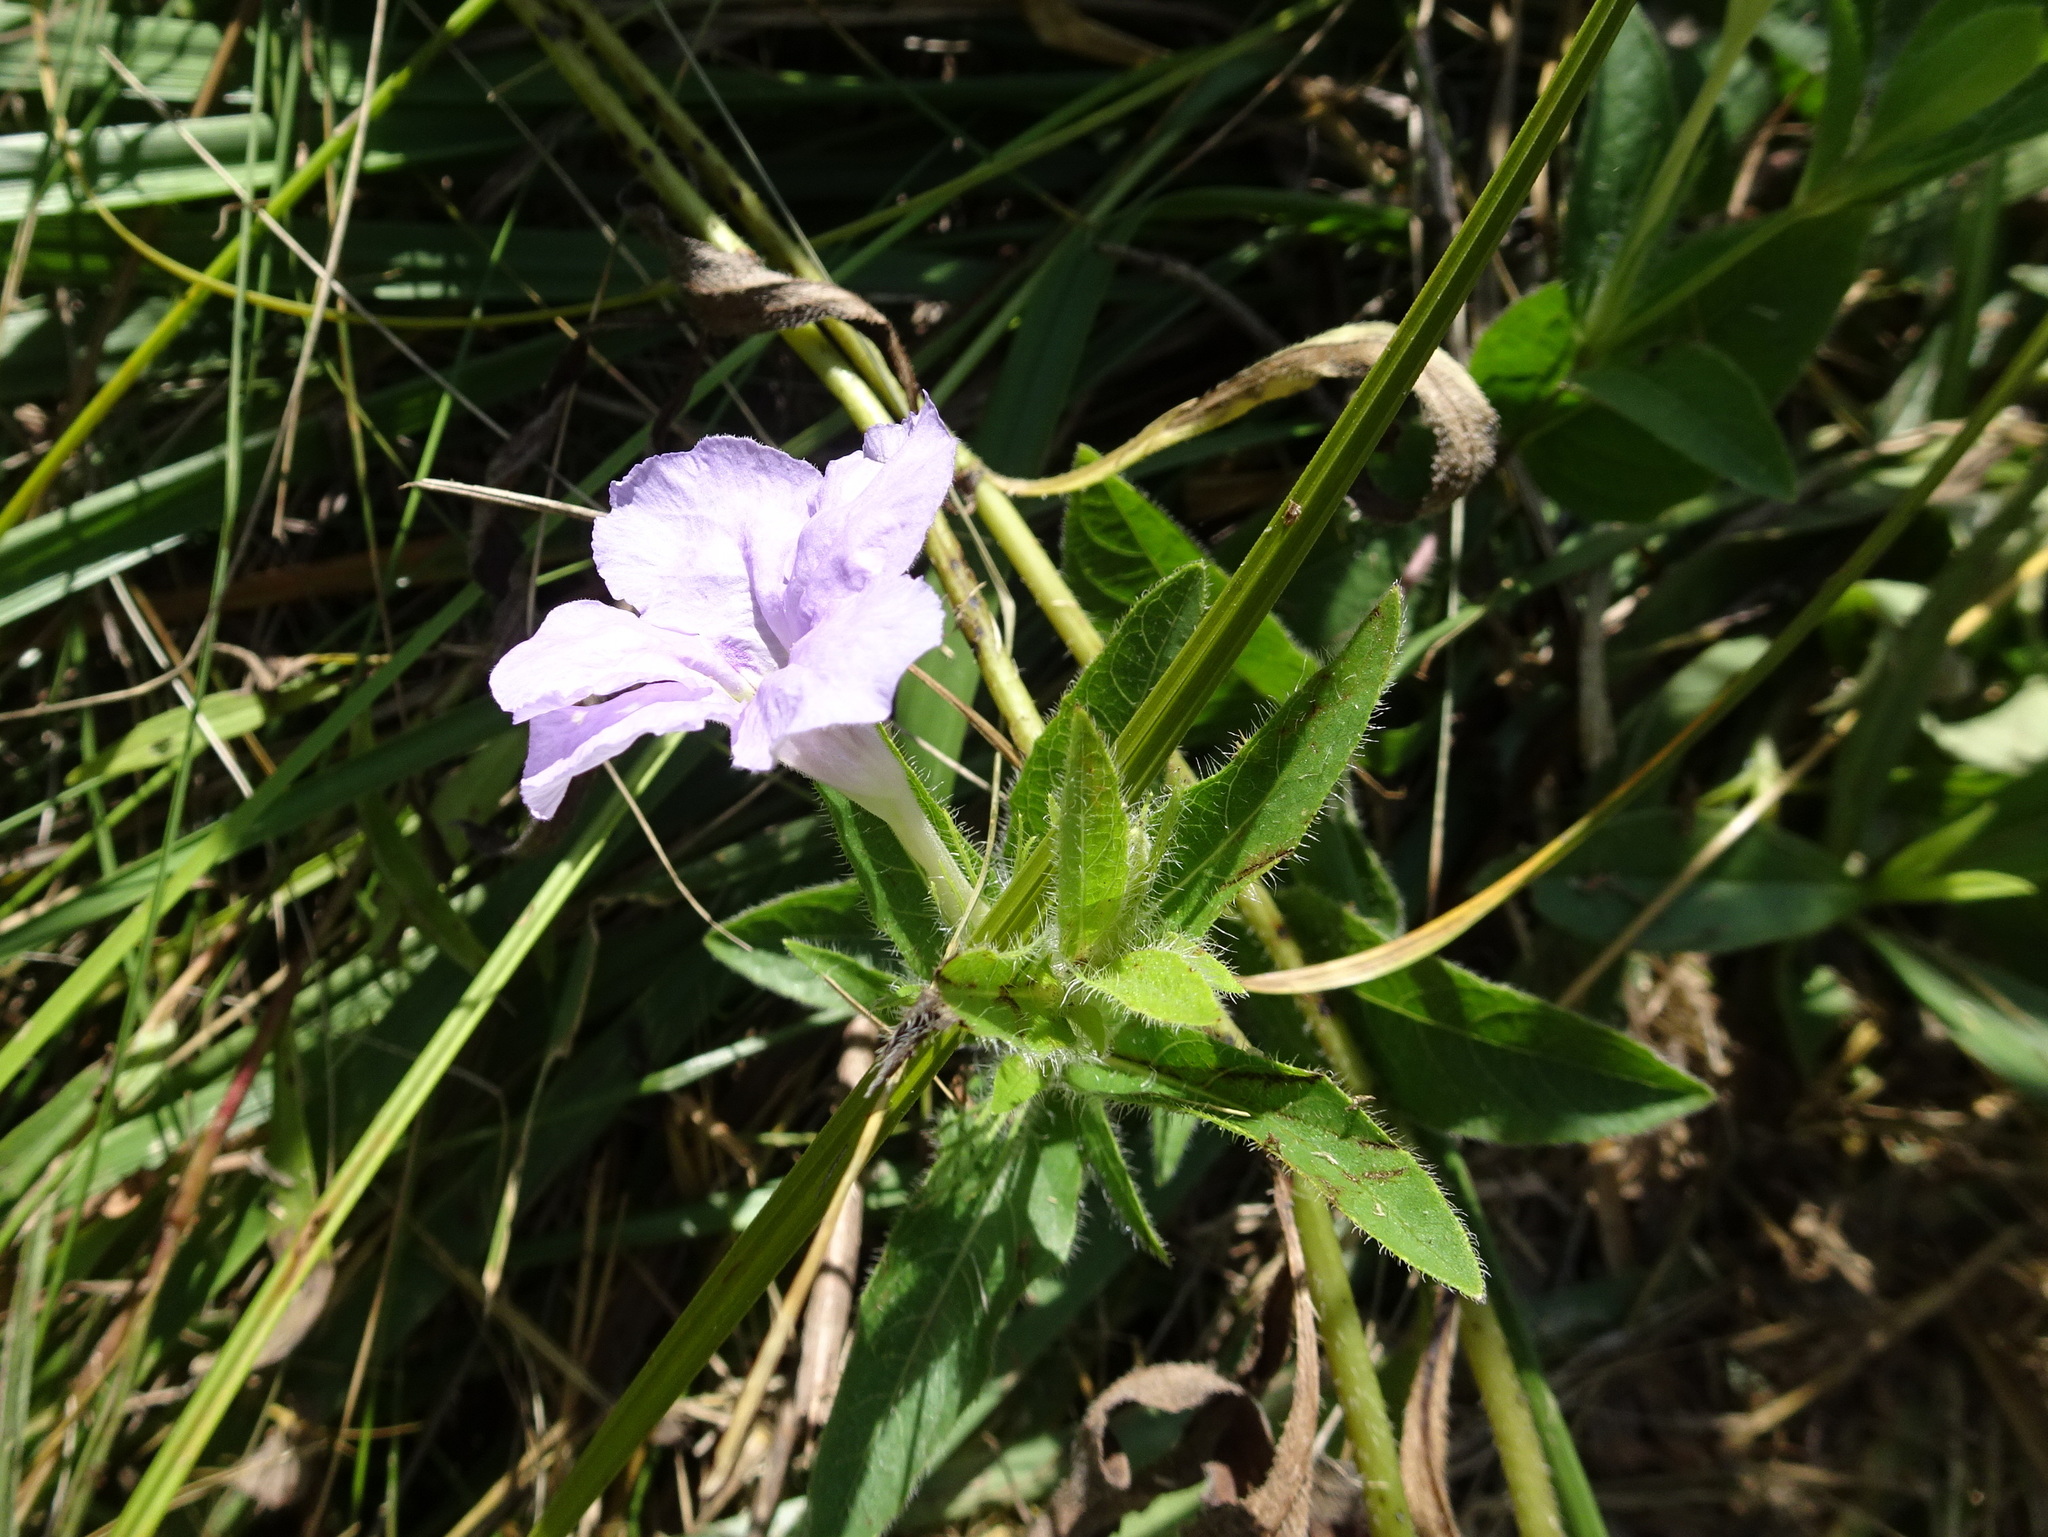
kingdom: Plantae
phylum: Tracheophyta
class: Magnoliopsida
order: Lamiales
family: Acanthaceae
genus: Ruellia
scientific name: Ruellia humilis
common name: Fringe-leaf ruellia
